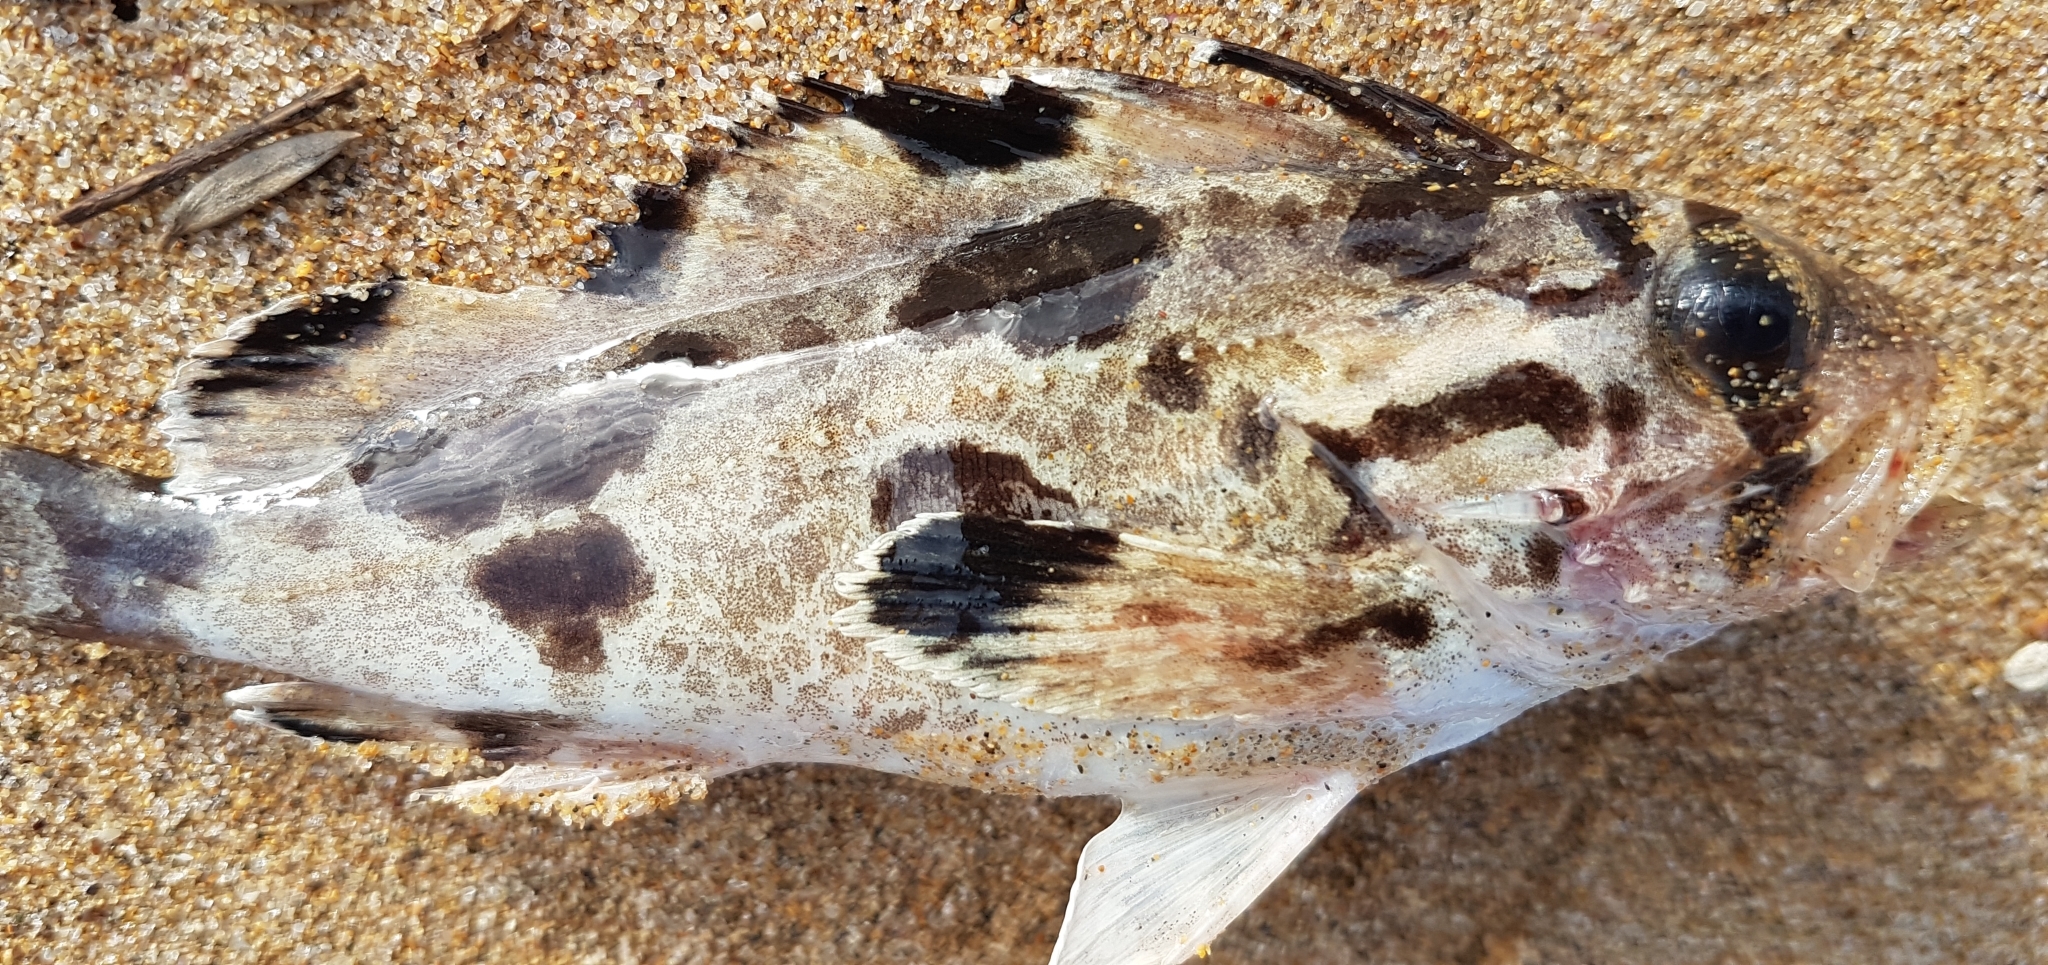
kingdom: Animalia
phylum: Chordata
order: Scorpaeniformes
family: Tetrarogidae
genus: Gymnapistes
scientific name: Gymnapistes marmoratus
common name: South australian cobbler
